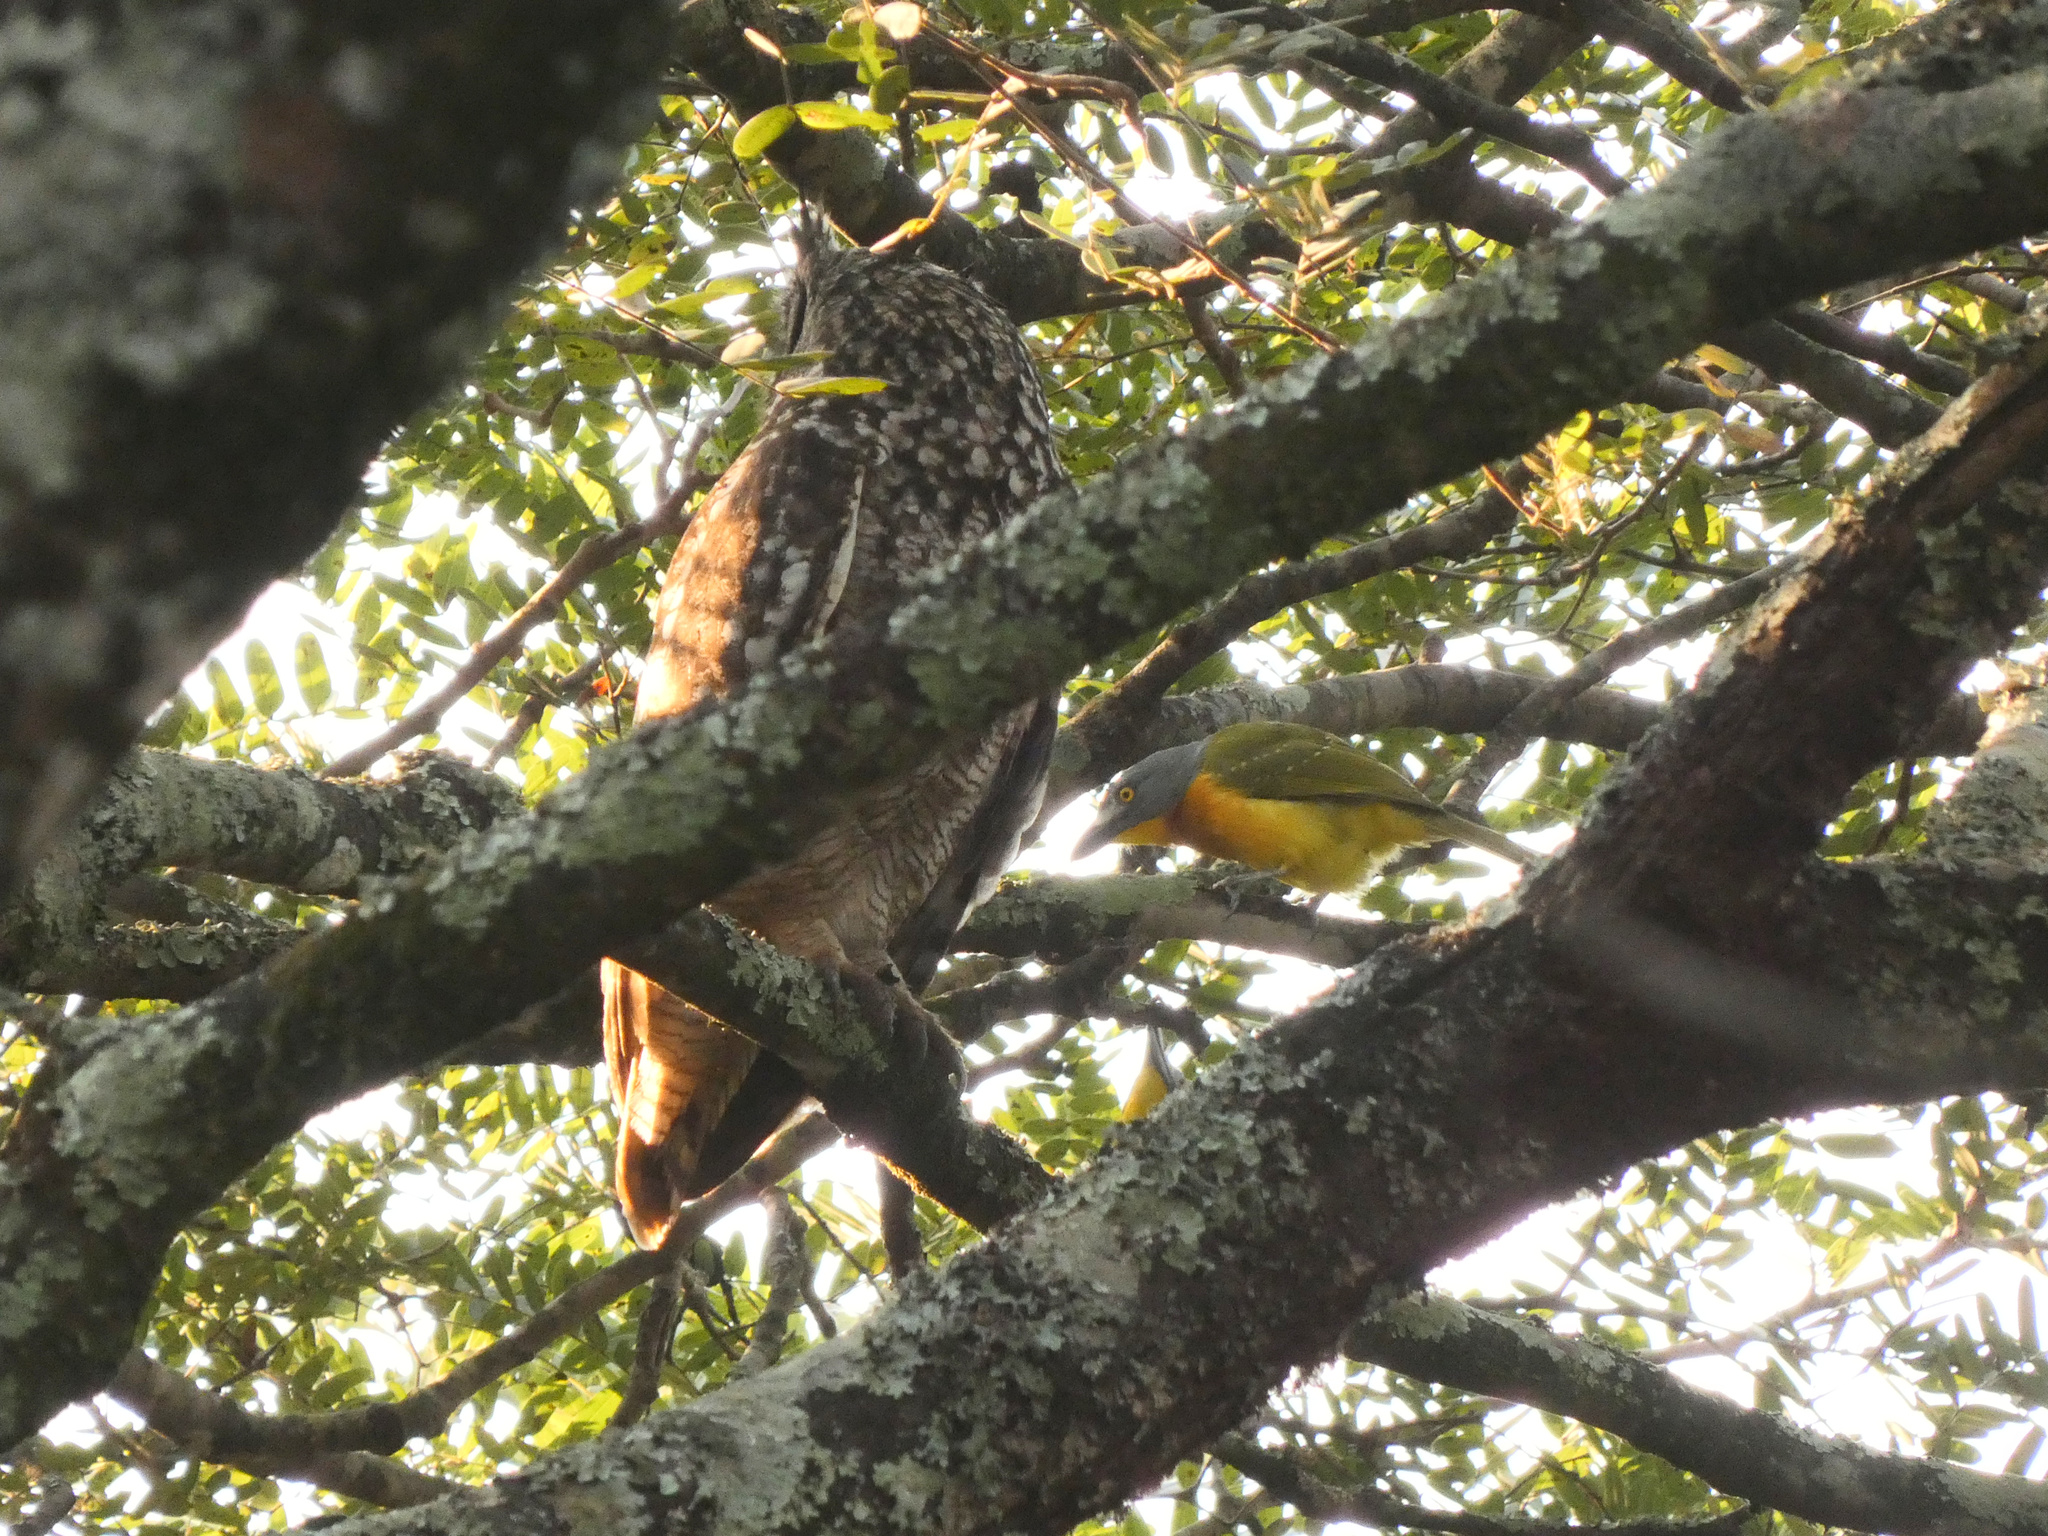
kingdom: Animalia
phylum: Chordata
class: Aves
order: Passeriformes
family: Malaconotidae
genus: Malaconotus
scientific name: Malaconotus blanchoti
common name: Grey-headed bushshrike
